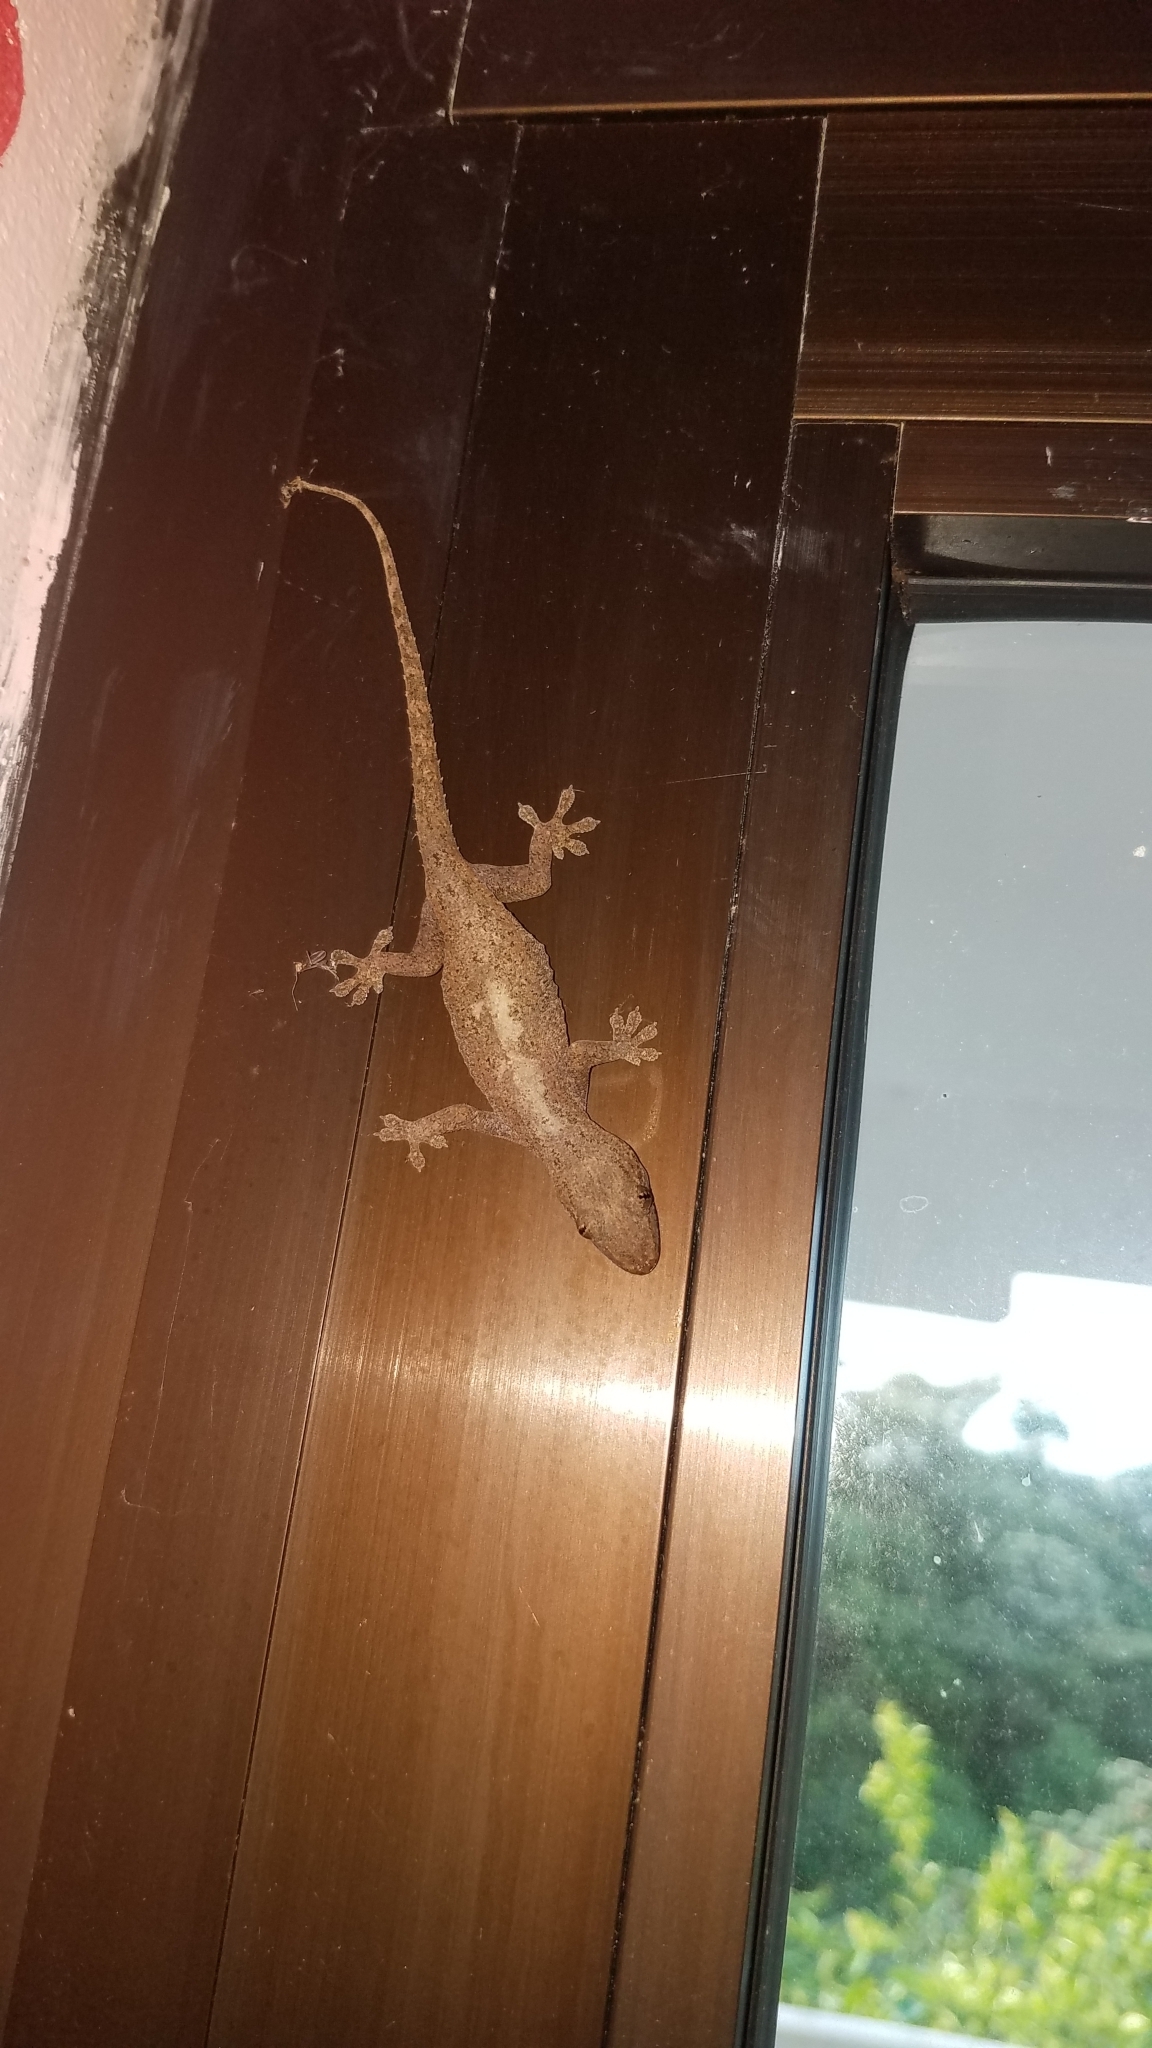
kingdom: Animalia
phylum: Chordata
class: Squamata
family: Gekkonidae
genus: Hemidactylus
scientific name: Hemidactylus frenatus
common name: Common house gecko
